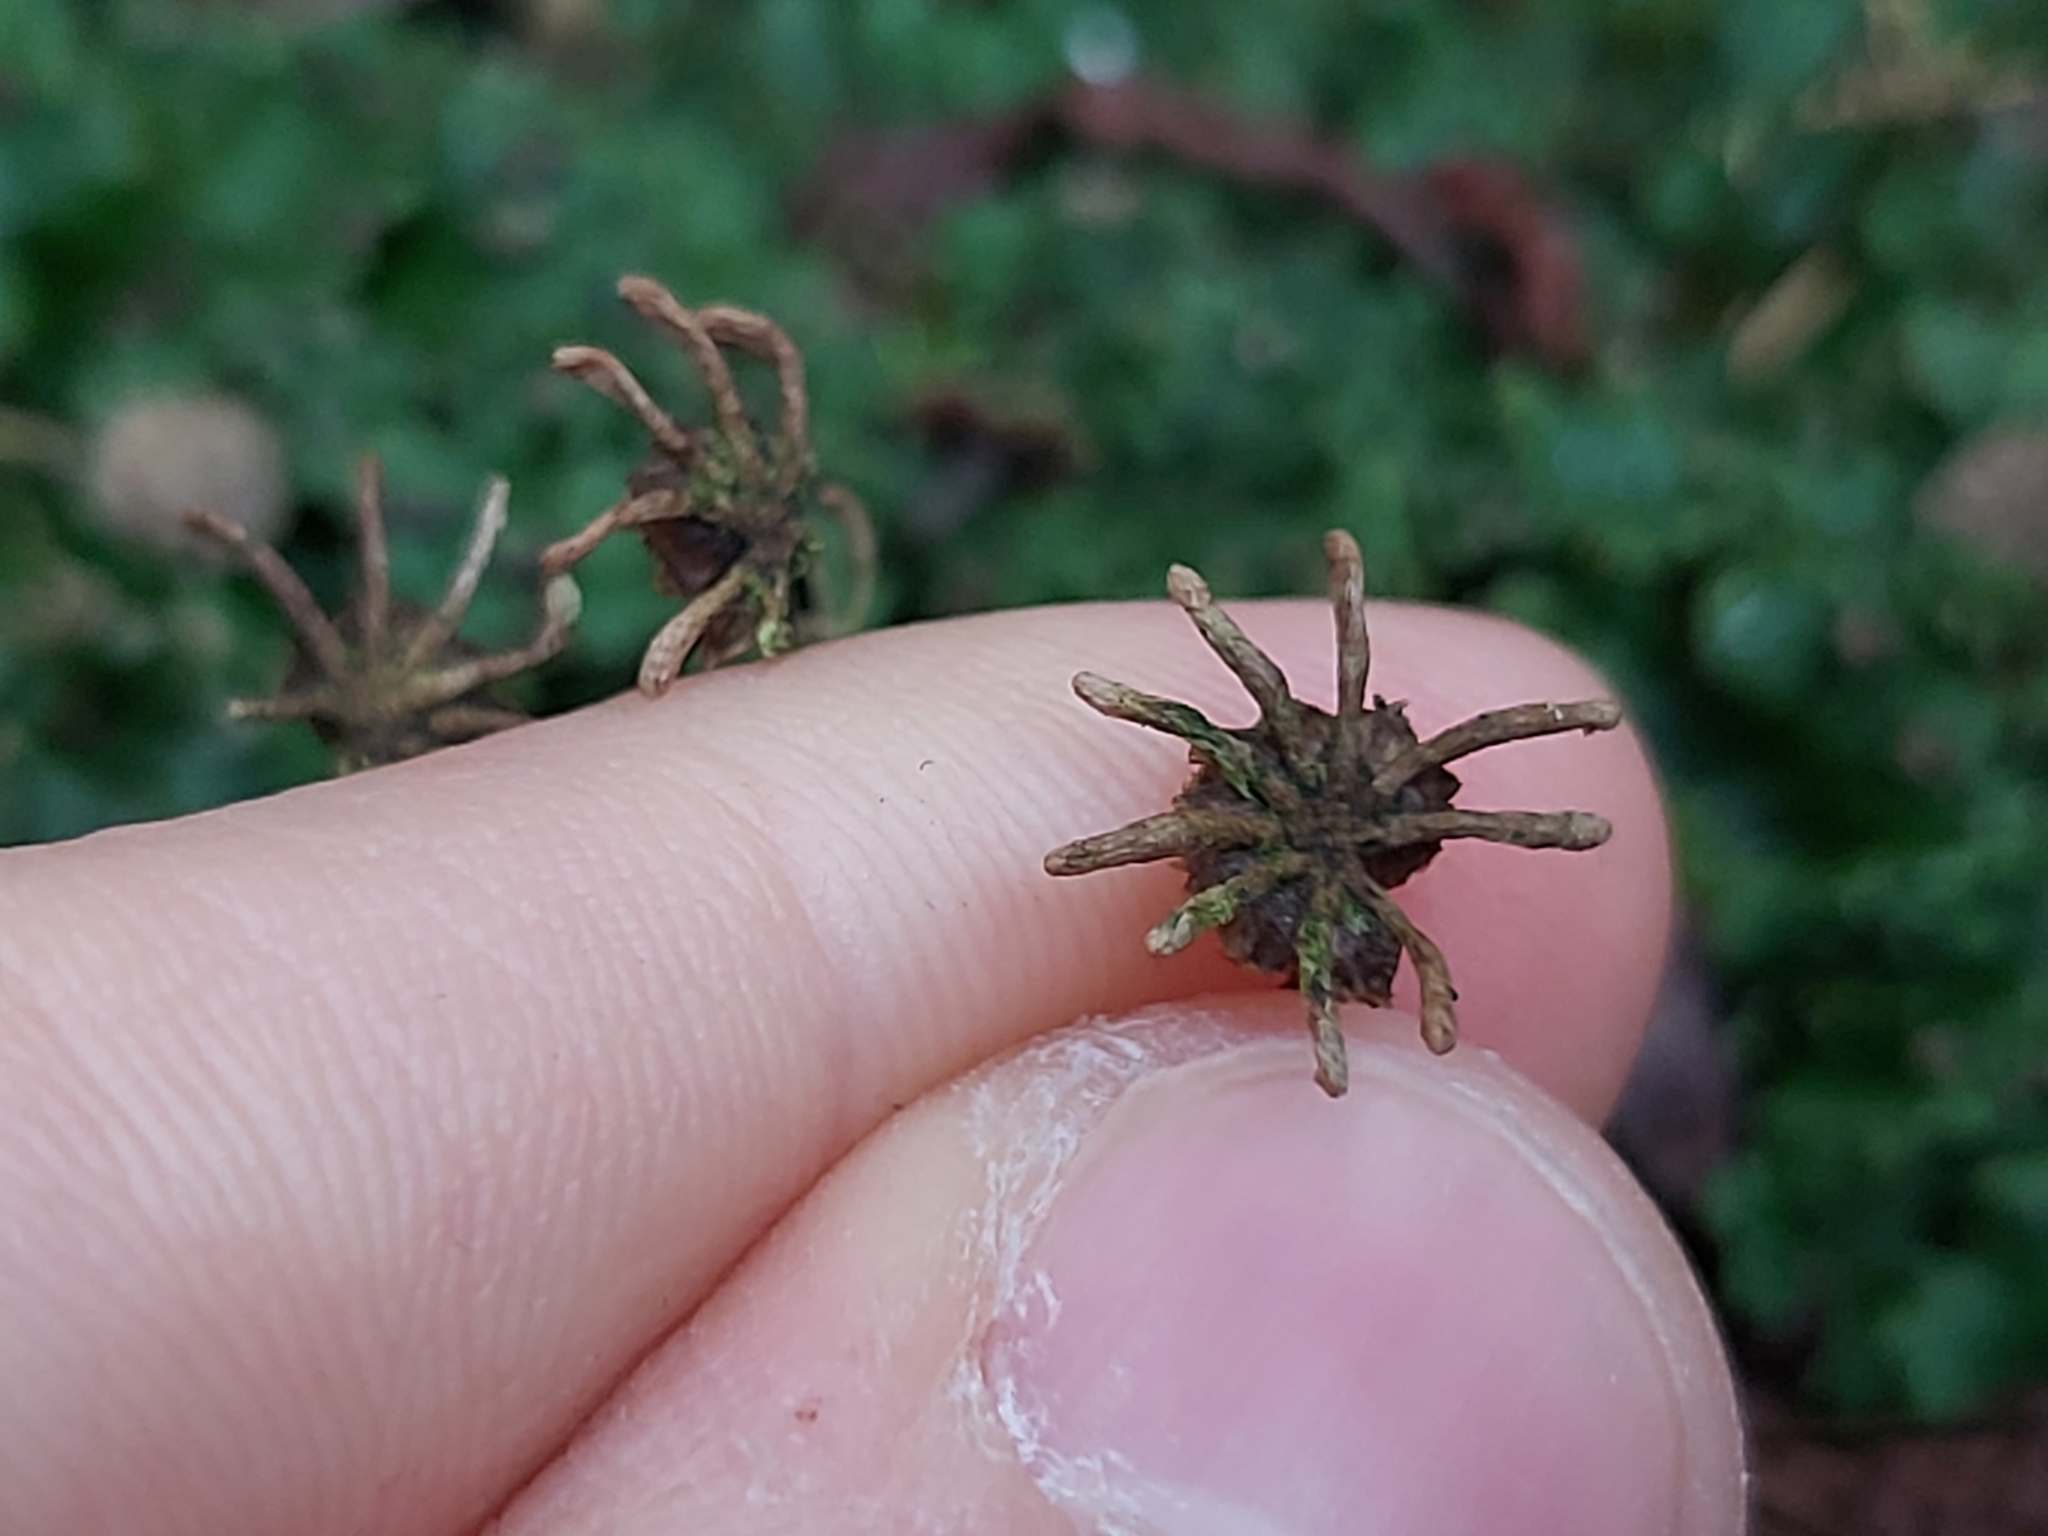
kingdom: Plantae
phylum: Marchantiophyta
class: Marchantiopsida
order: Marchantiales
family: Marchantiaceae
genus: Marchantia
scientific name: Marchantia polymorpha
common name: Common liverwort
